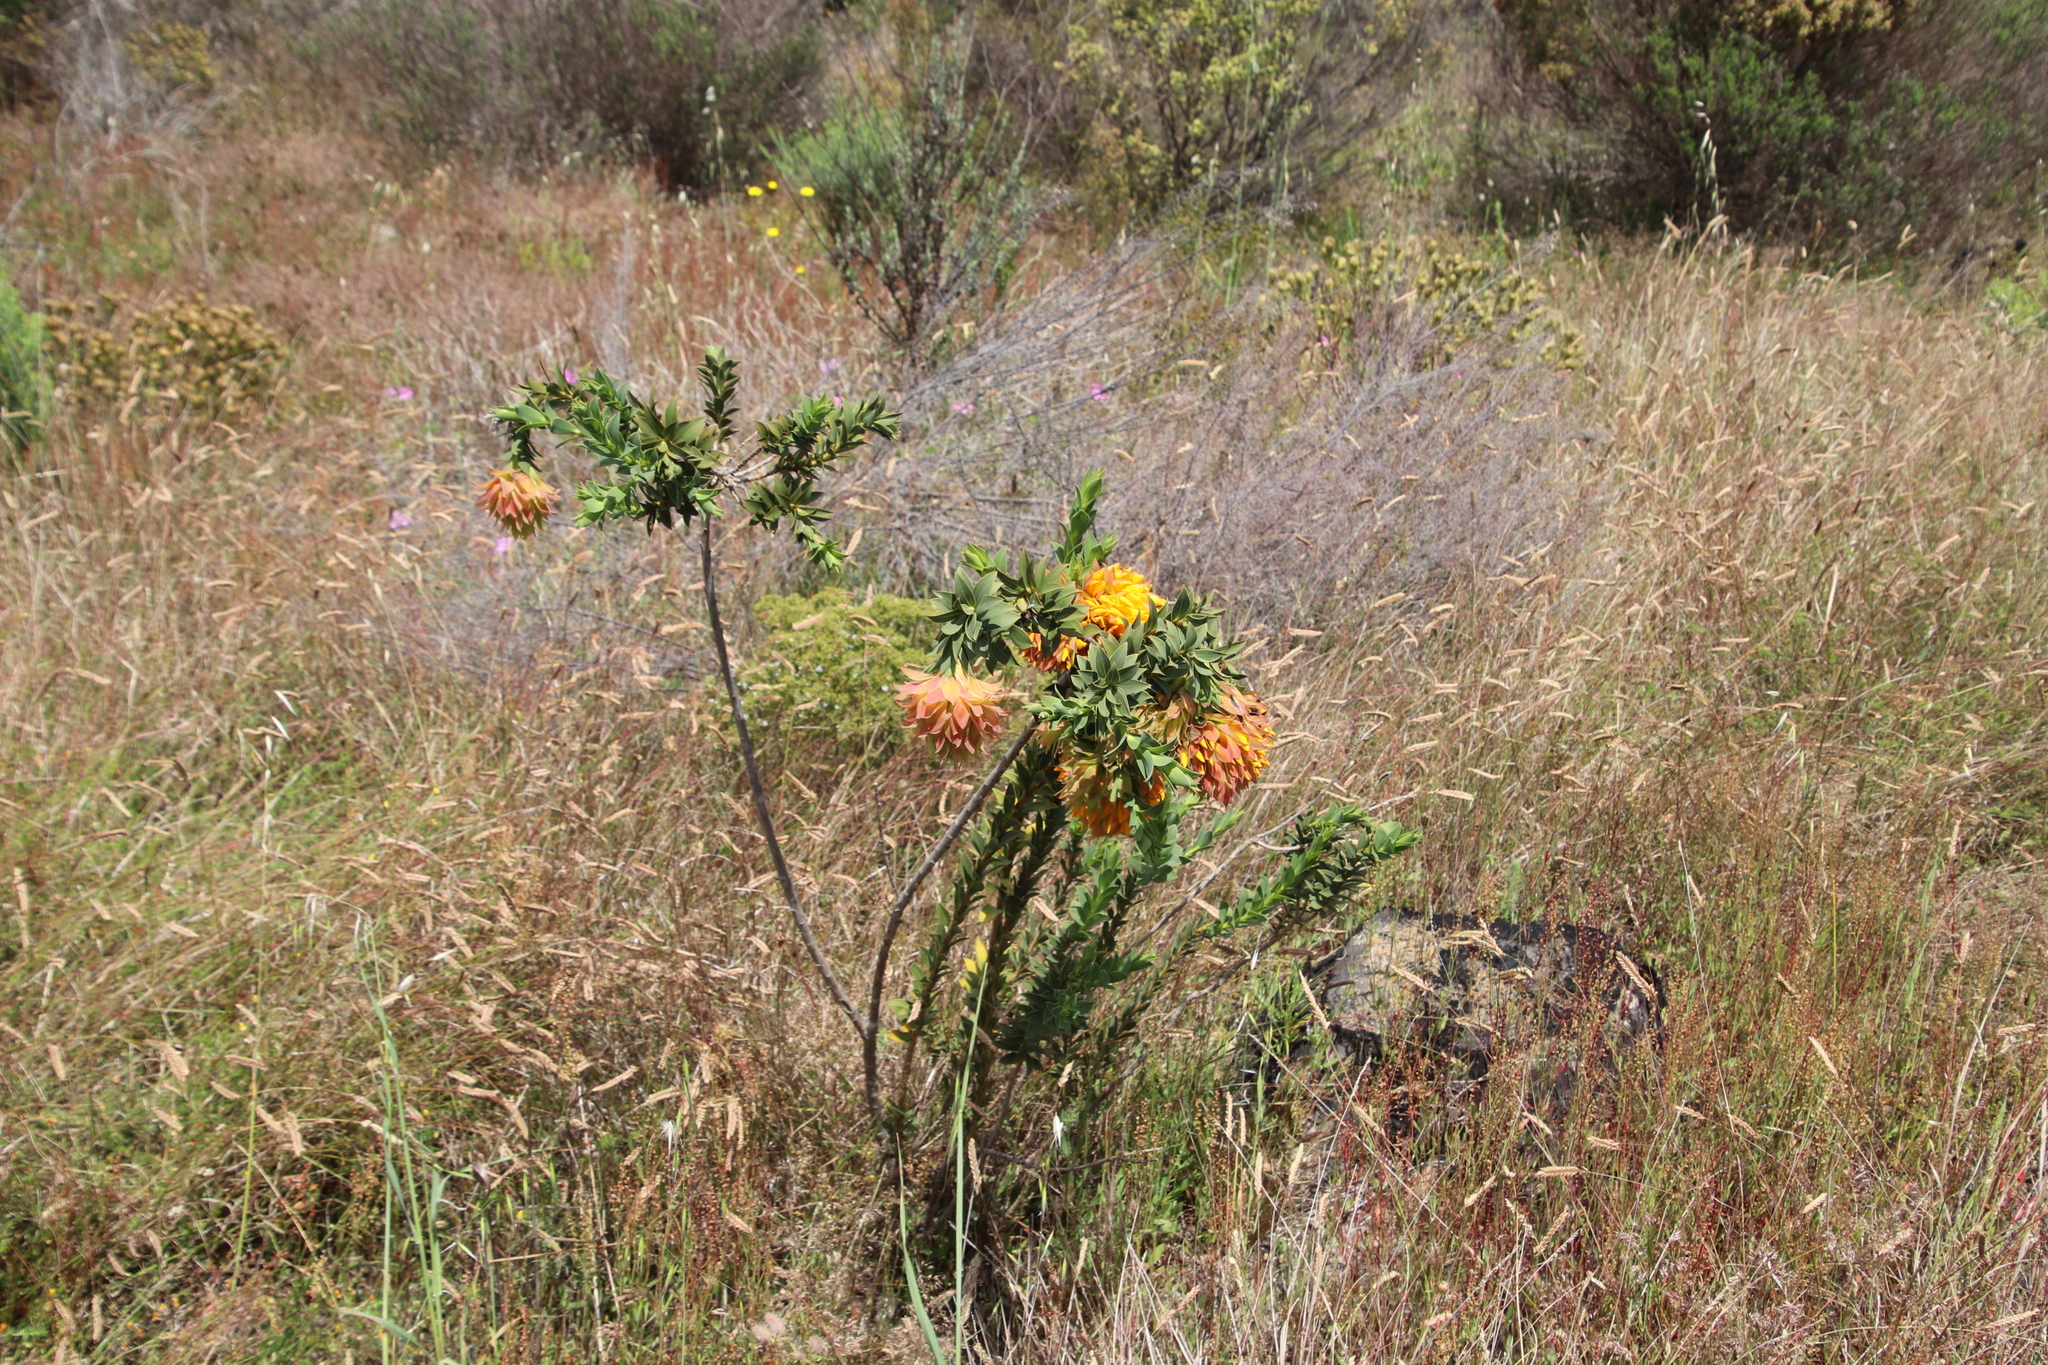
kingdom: Plantae
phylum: Tracheophyta
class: Magnoliopsida
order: Fabales
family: Fabaceae
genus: Liparia
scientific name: Liparia splendens
